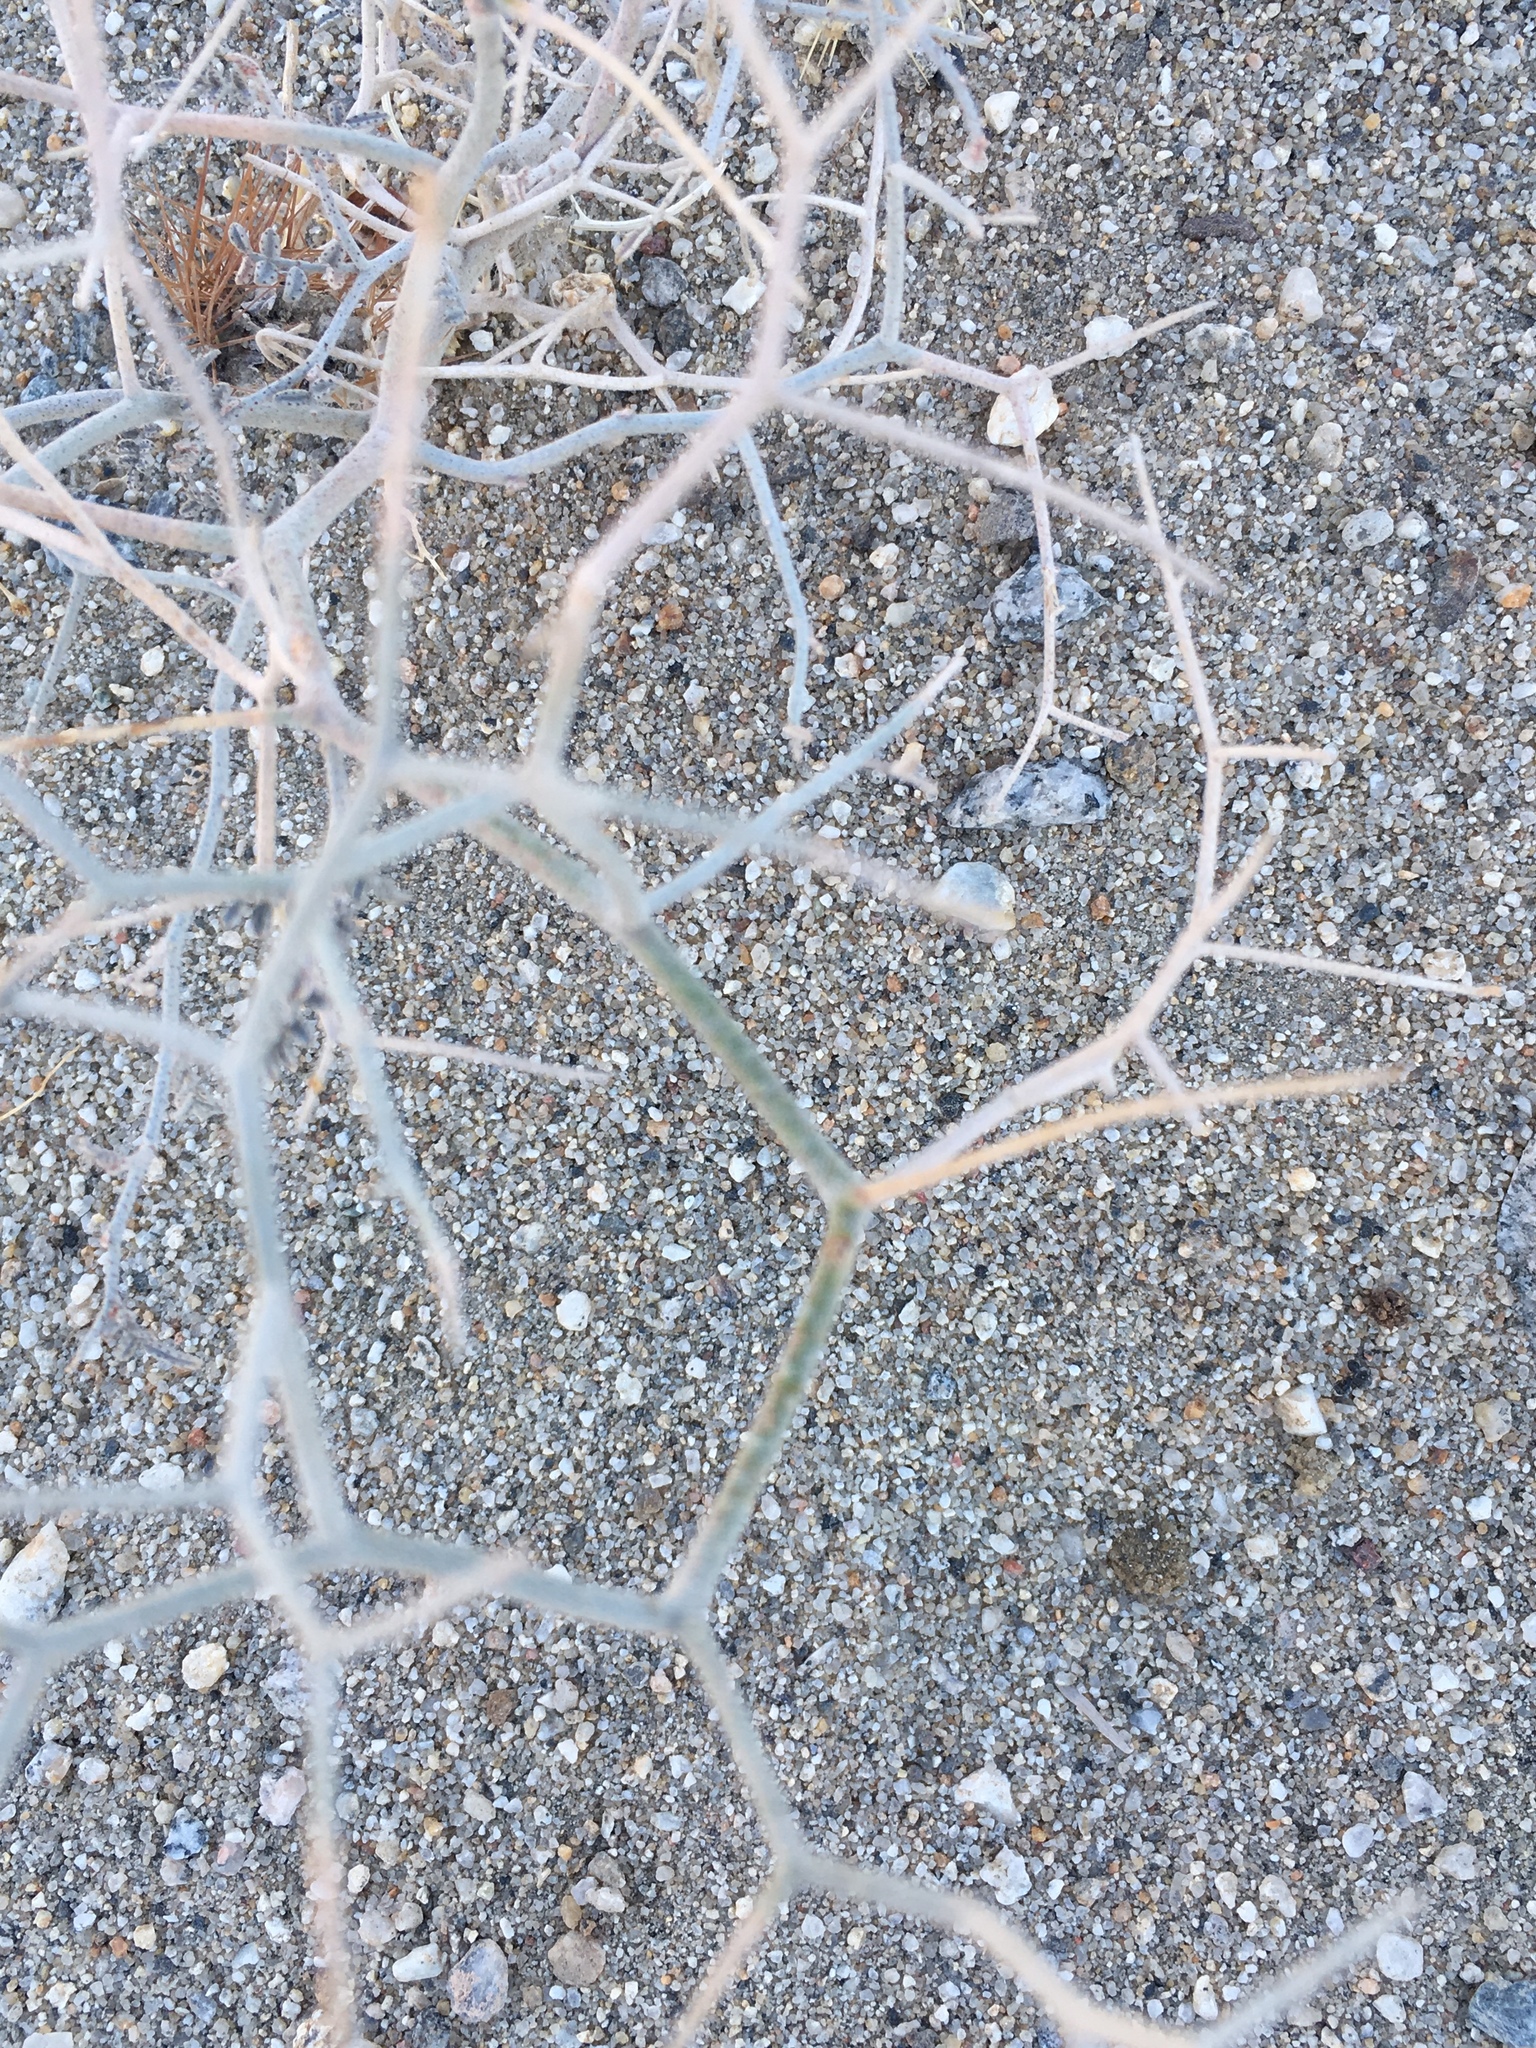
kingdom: Plantae
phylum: Tracheophyta
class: Magnoliopsida
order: Fabales
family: Fabaceae
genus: Psorothamnus
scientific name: Psorothamnus emoryi
